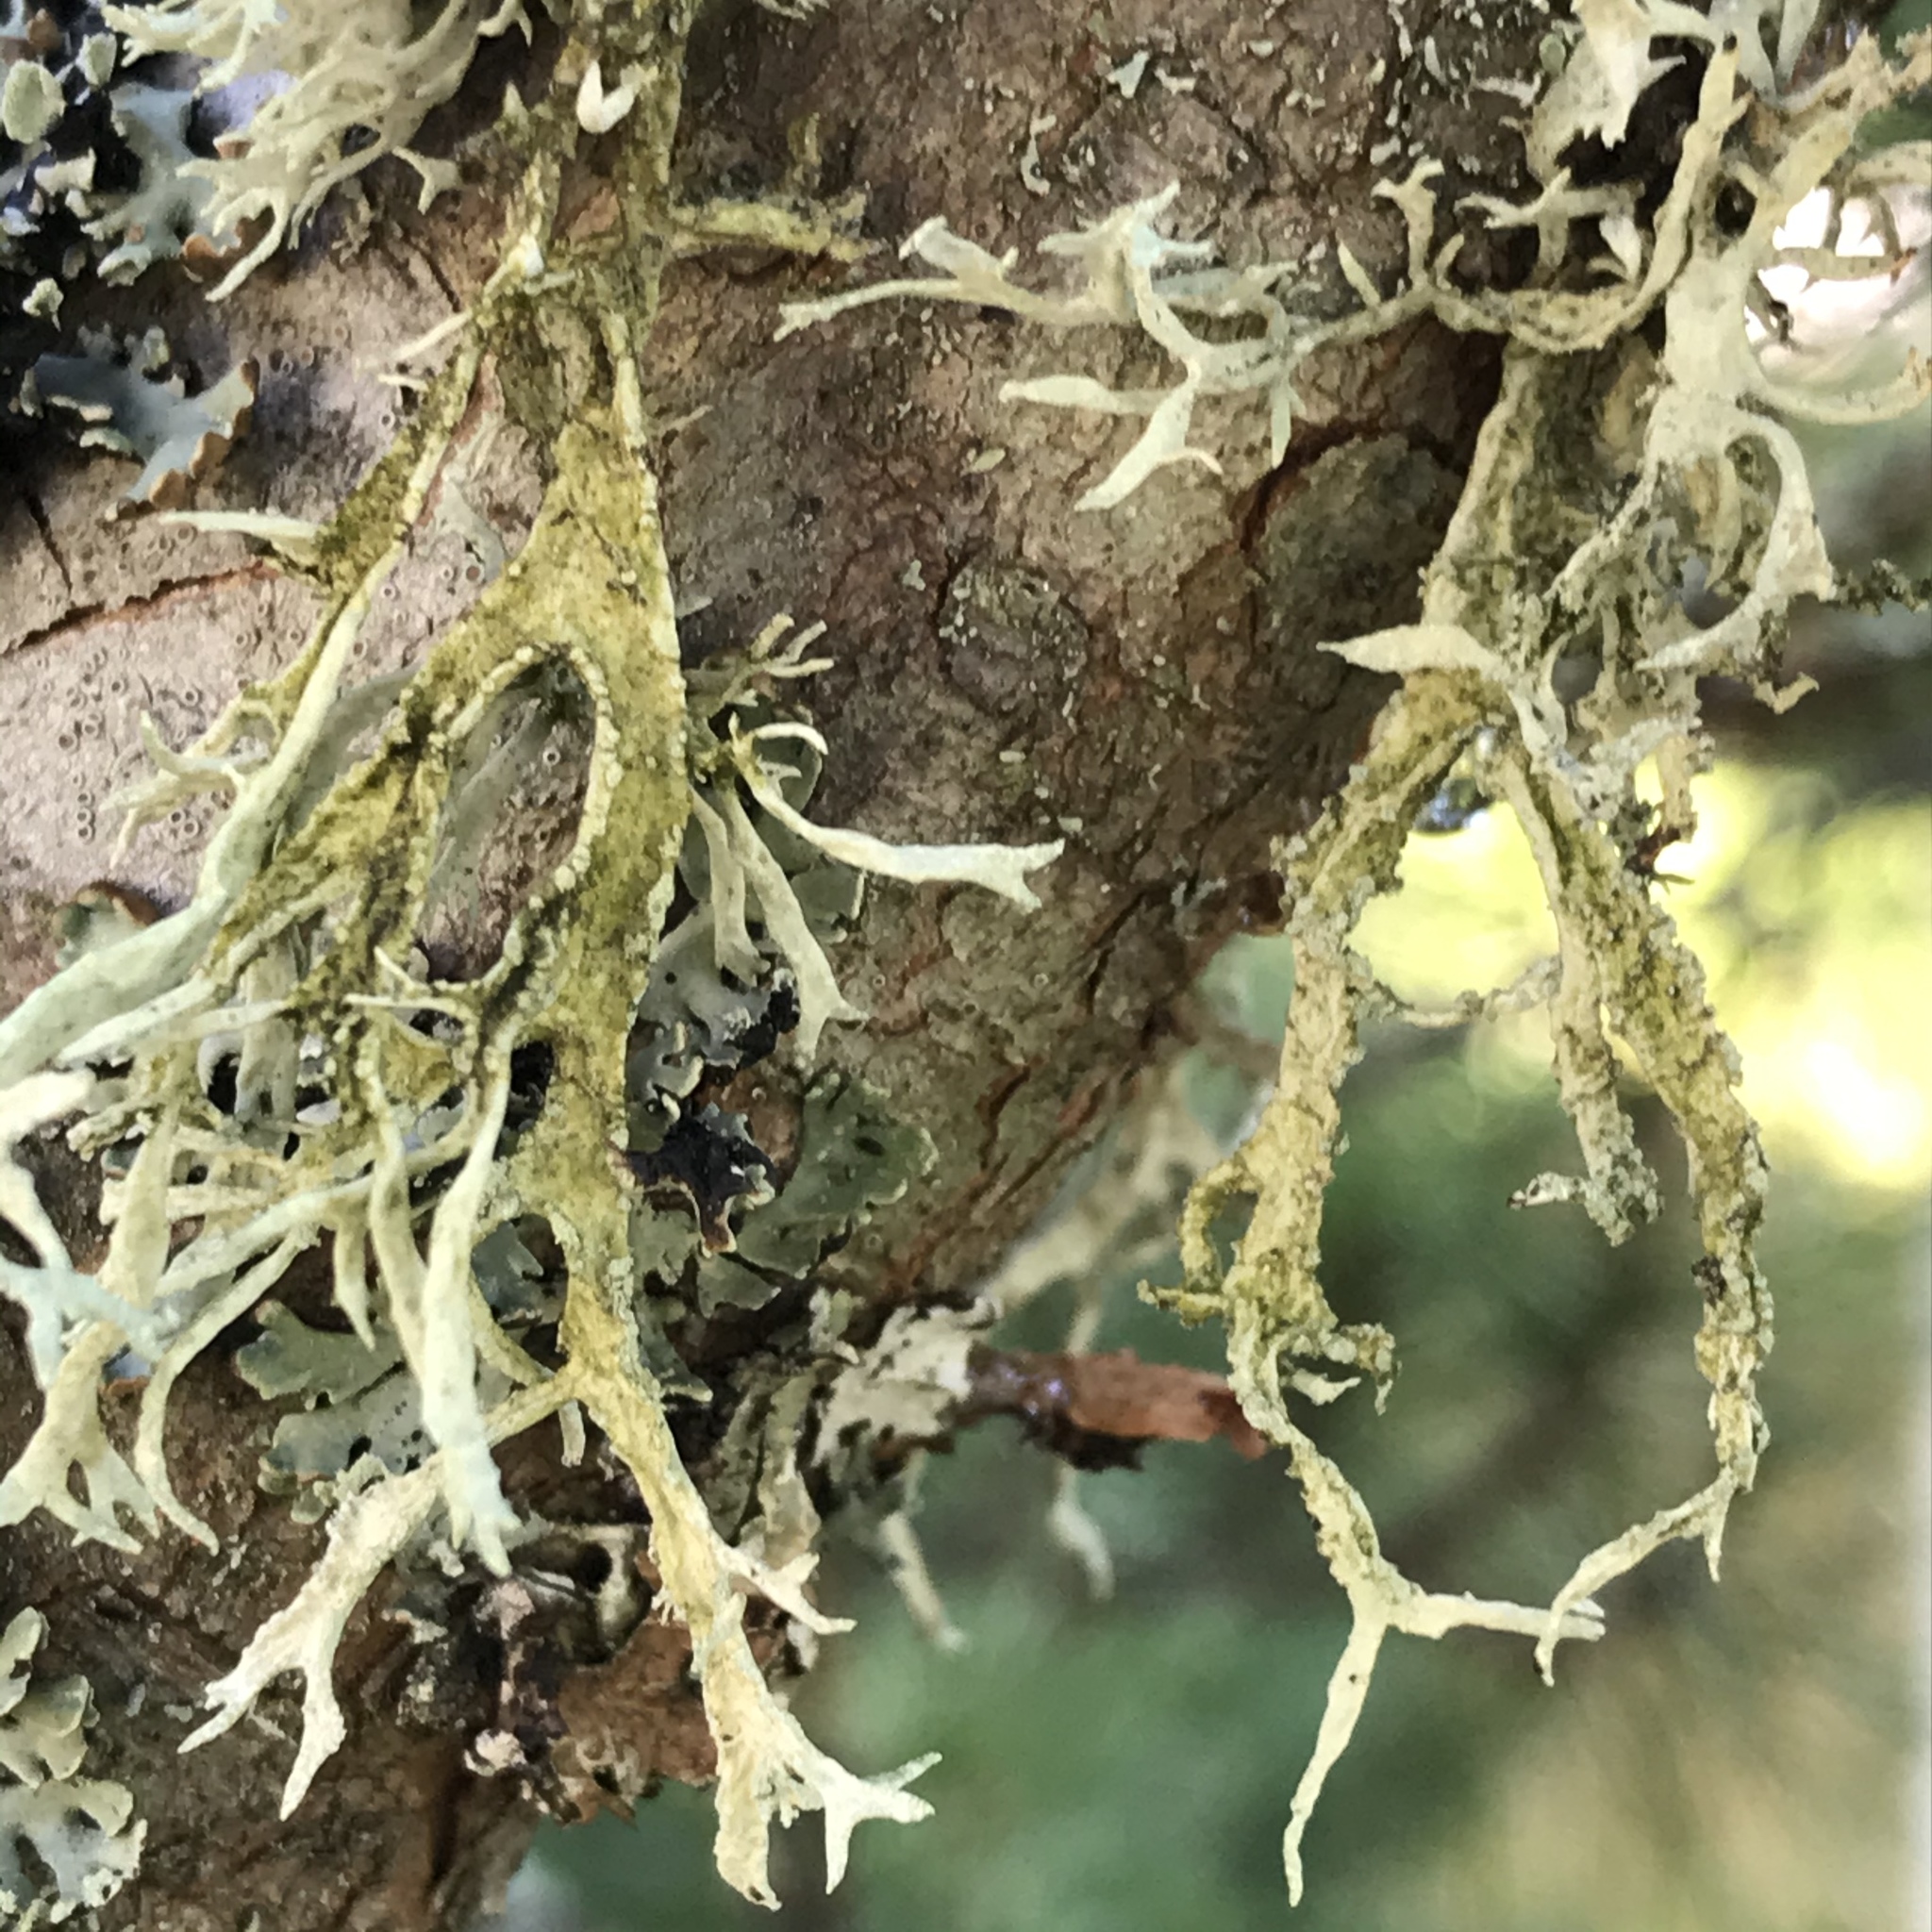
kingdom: Fungi
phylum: Ascomycota
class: Lecanoromycetes
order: Lecanorales
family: Parmeliaceae
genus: Pseudevernia
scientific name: Pseudevernia furfuracea
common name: Tree moss
